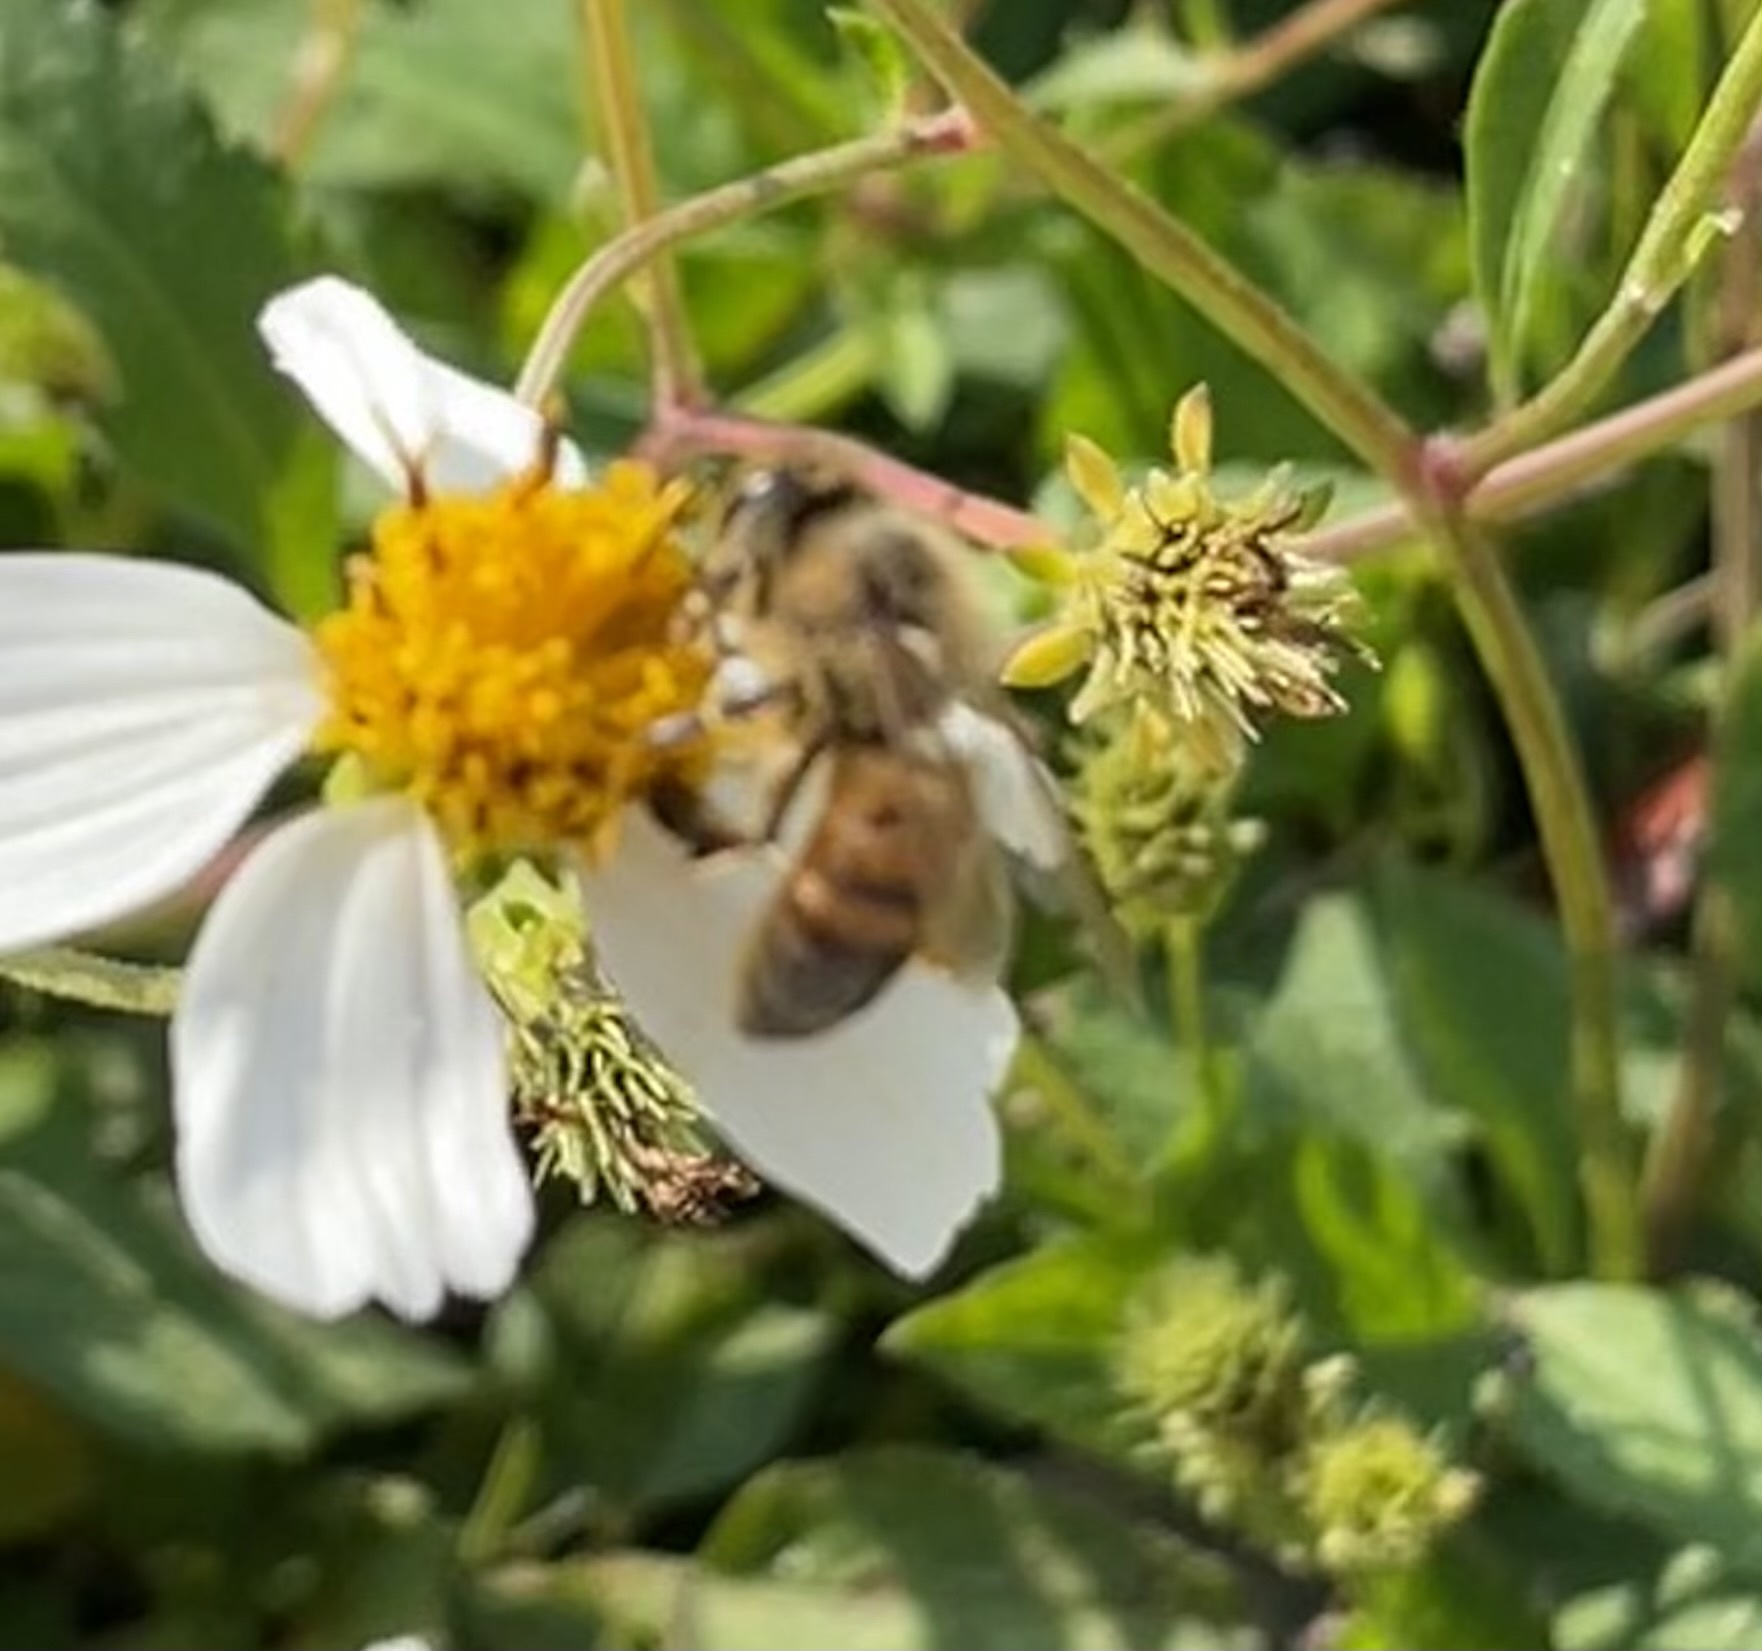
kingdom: Animalia
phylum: Arthropoda
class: Insecta
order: Hymenoptera
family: Apidae
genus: Apis
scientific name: Apis mellifera
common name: Honey bee
